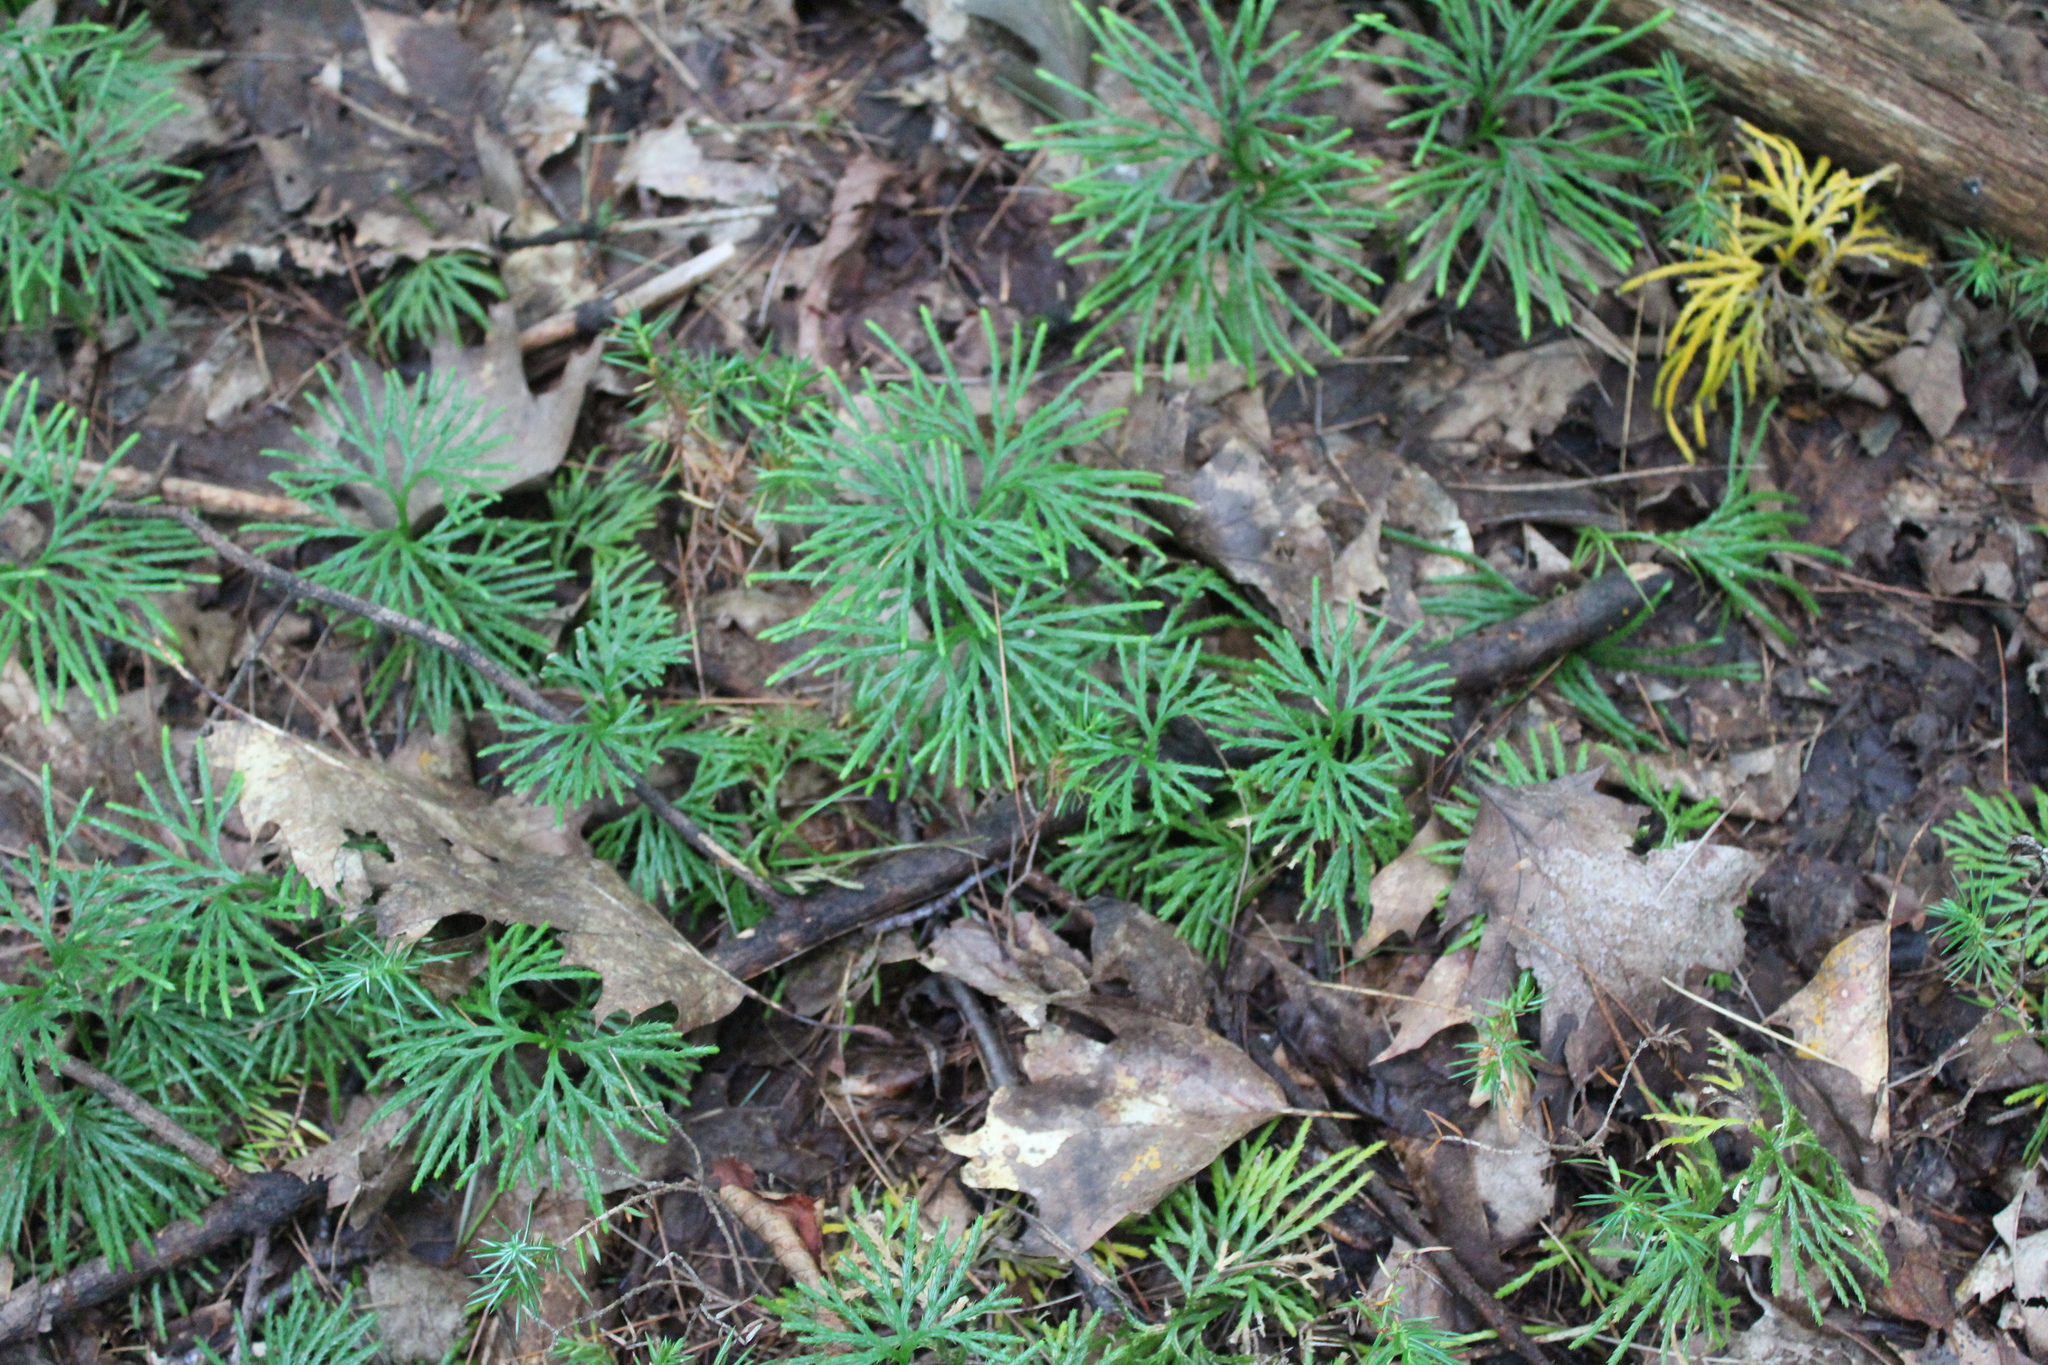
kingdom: Plantae
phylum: Tracheophyta
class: Lycopodiopsida
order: Lycopodiales
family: Lycopodiaceae
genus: Diphasiastrum
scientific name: Diphasiastrum digitatum
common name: Southern running-pine
